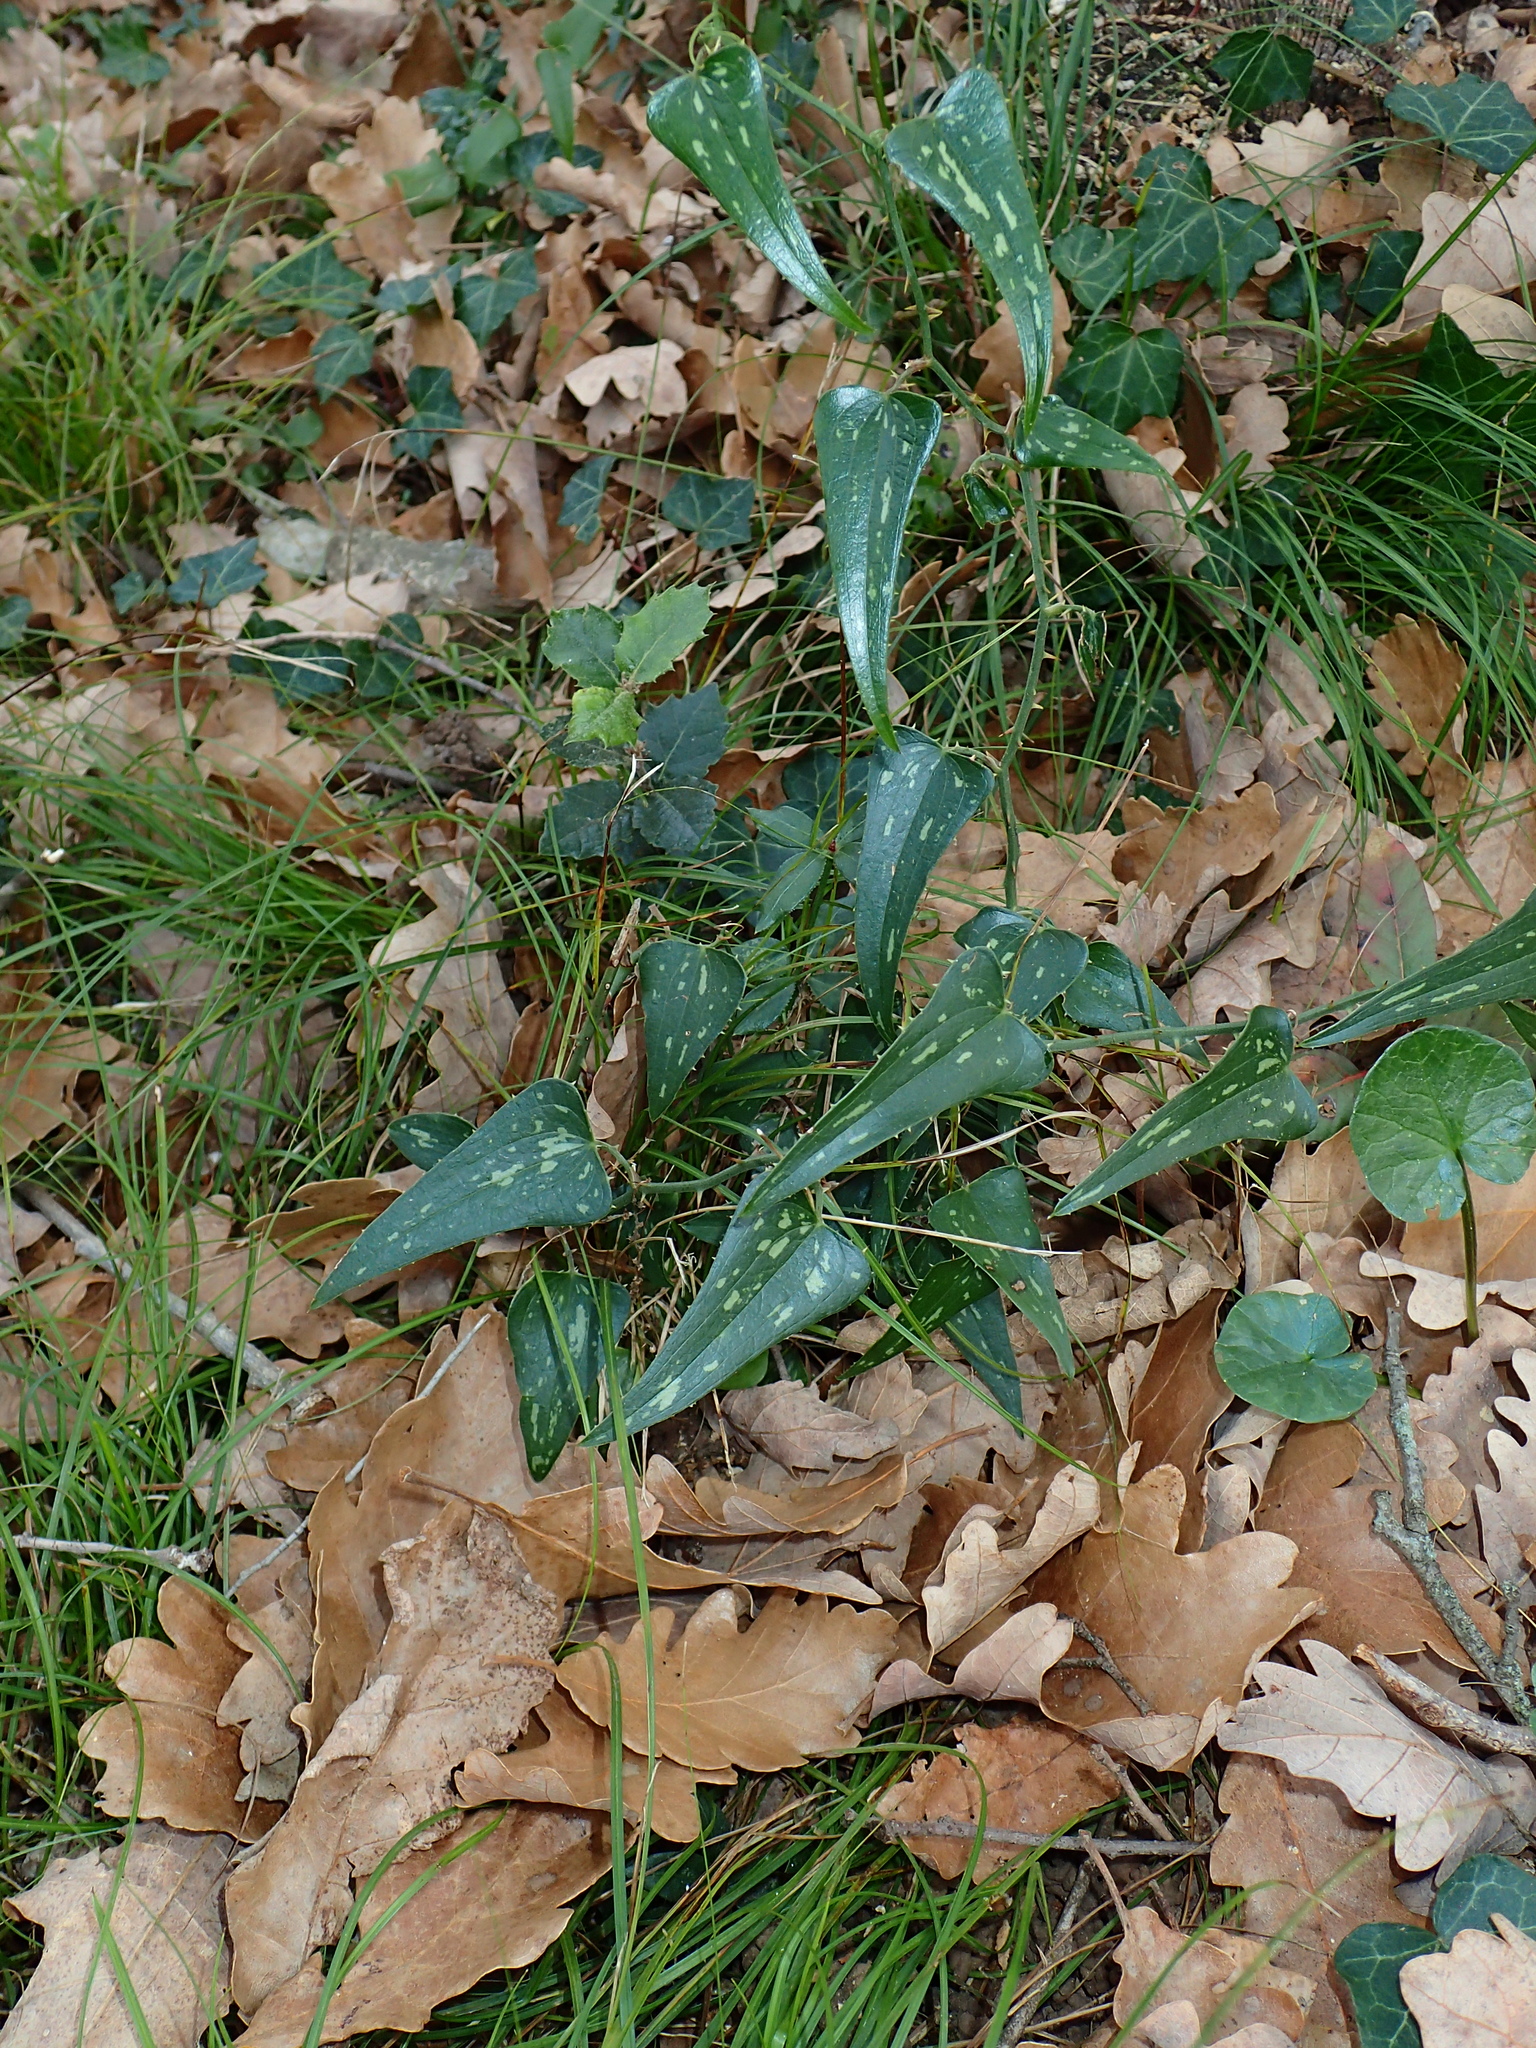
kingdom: Plantae
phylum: Tracheophyta
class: Liliopsida
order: Liliales
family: Smilacaceae
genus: Smilax
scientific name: Smilax aspera
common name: Common smilax
